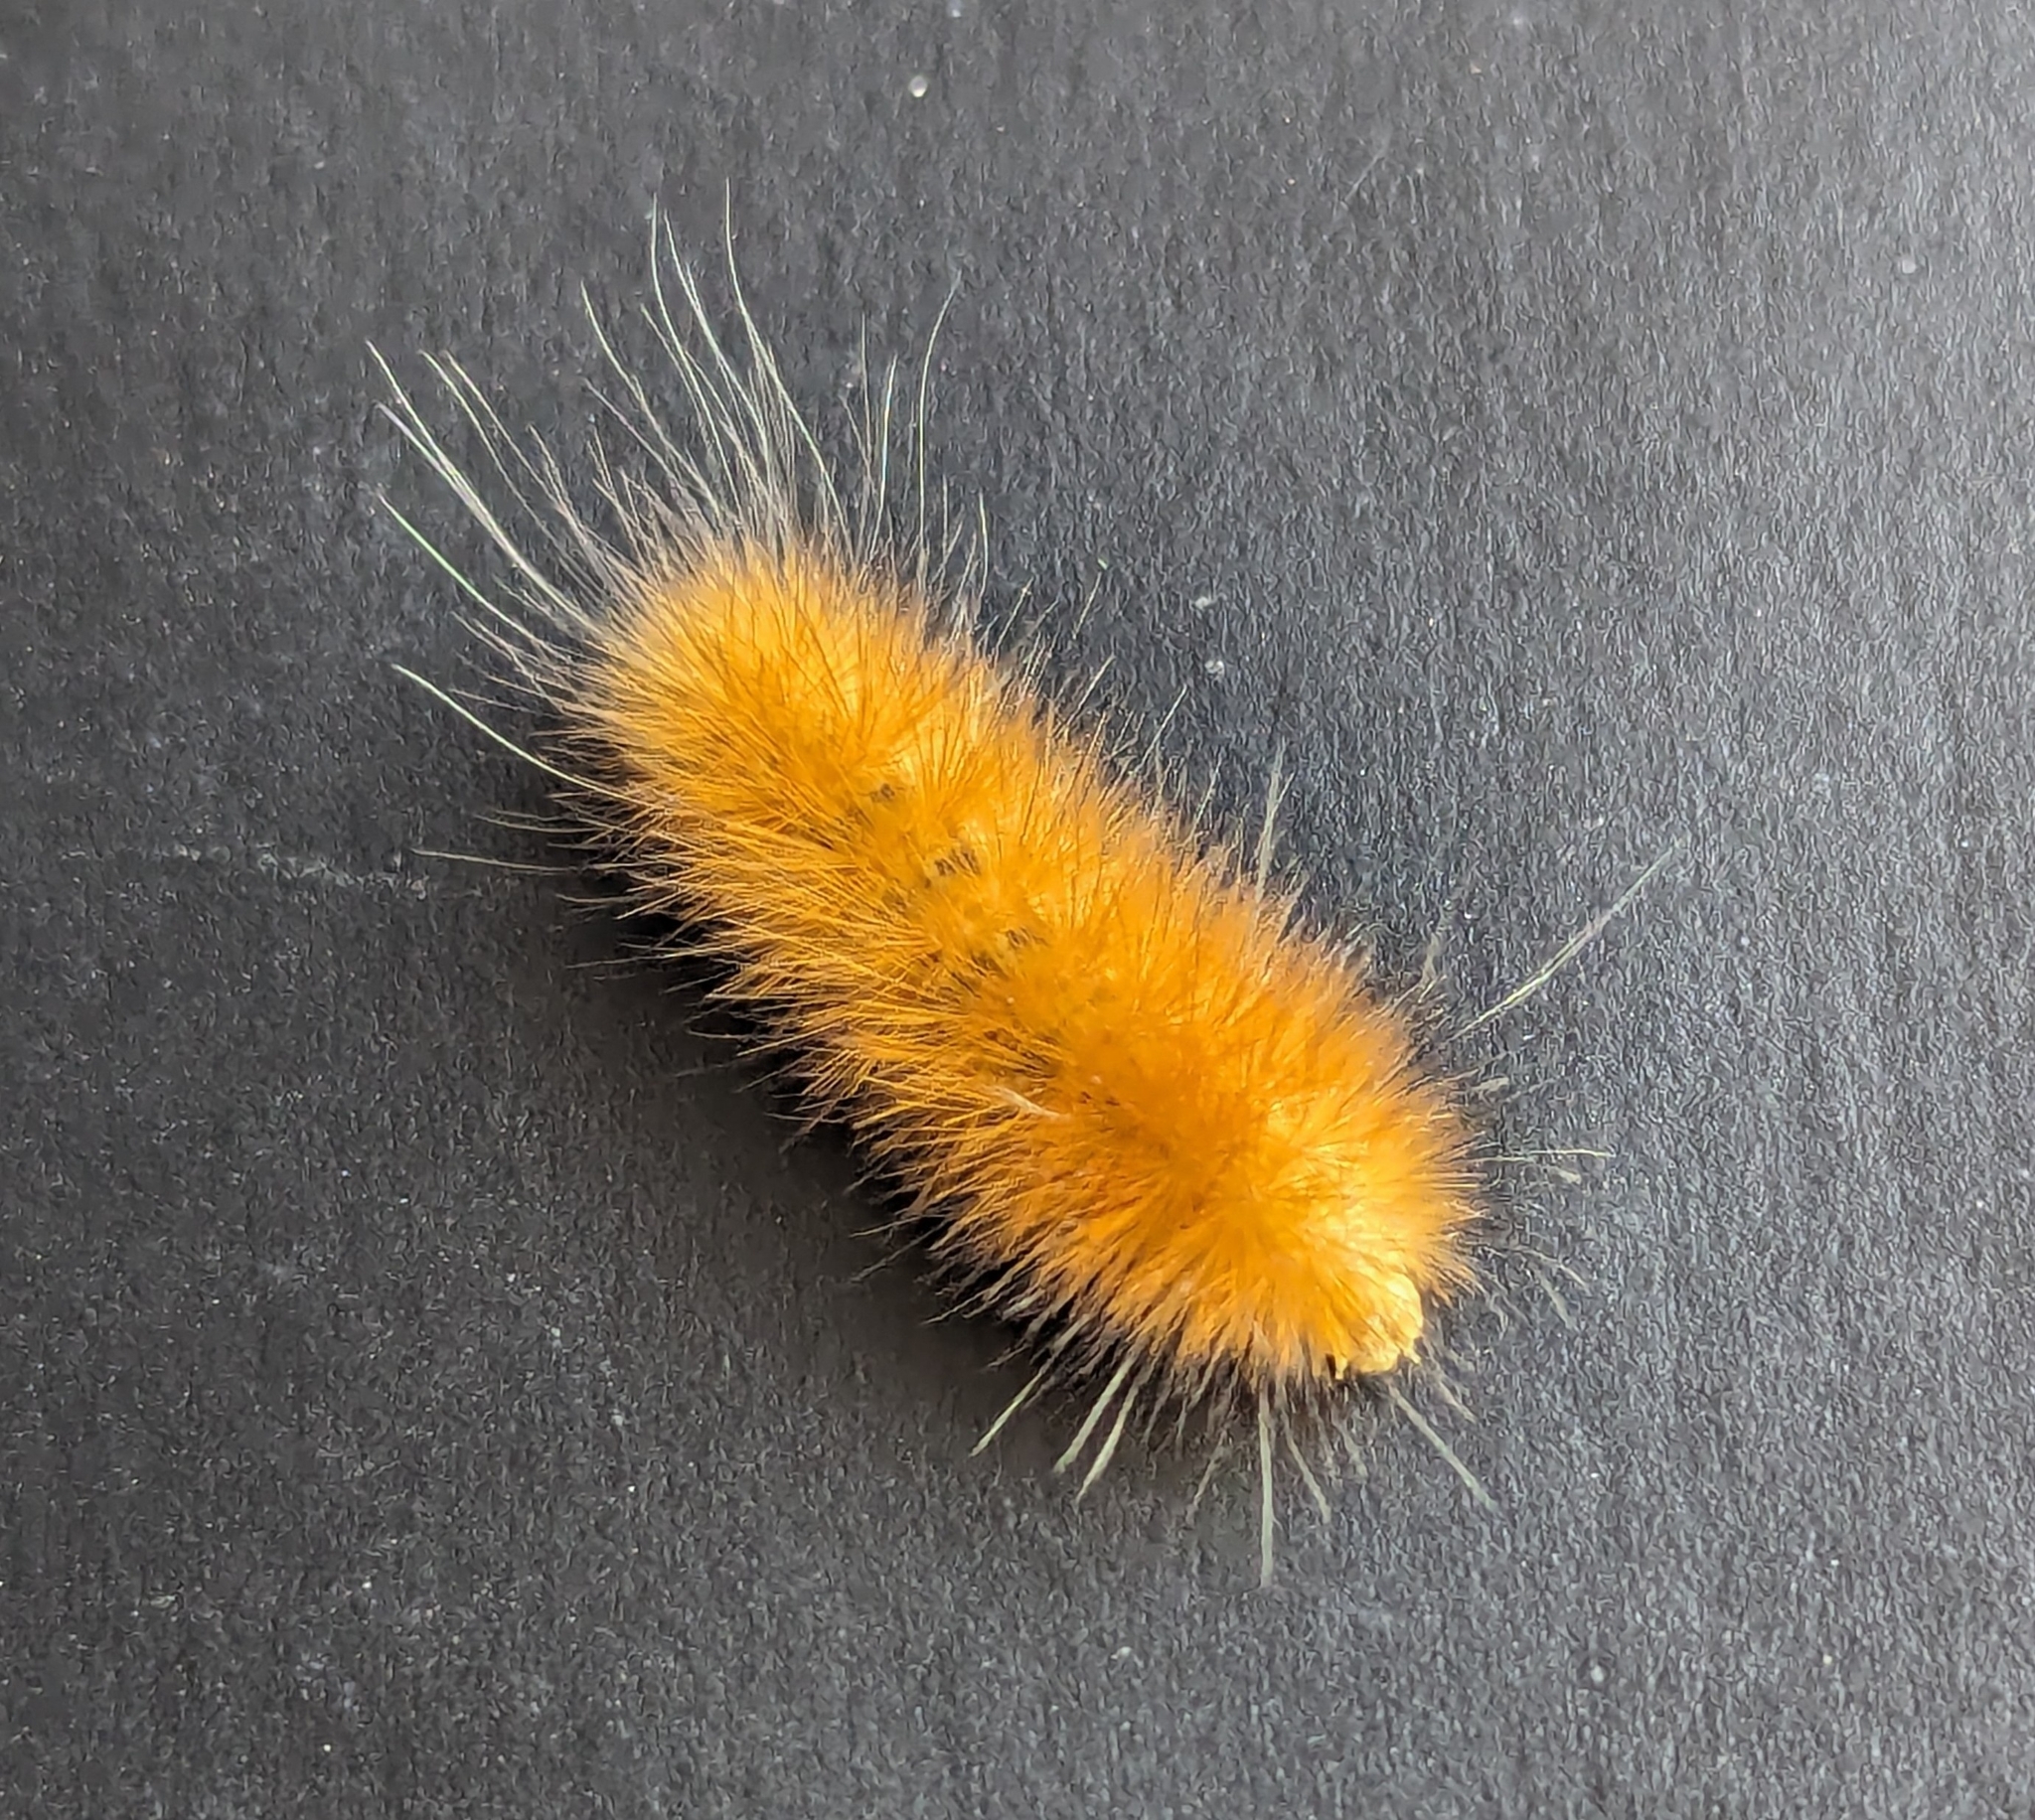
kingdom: Animalia
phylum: Arthropoda
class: Insecta
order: Lepidoptera
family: Erebidae
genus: Spilosoma
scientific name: Spilosoma virginica
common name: Virginia tiger moth
